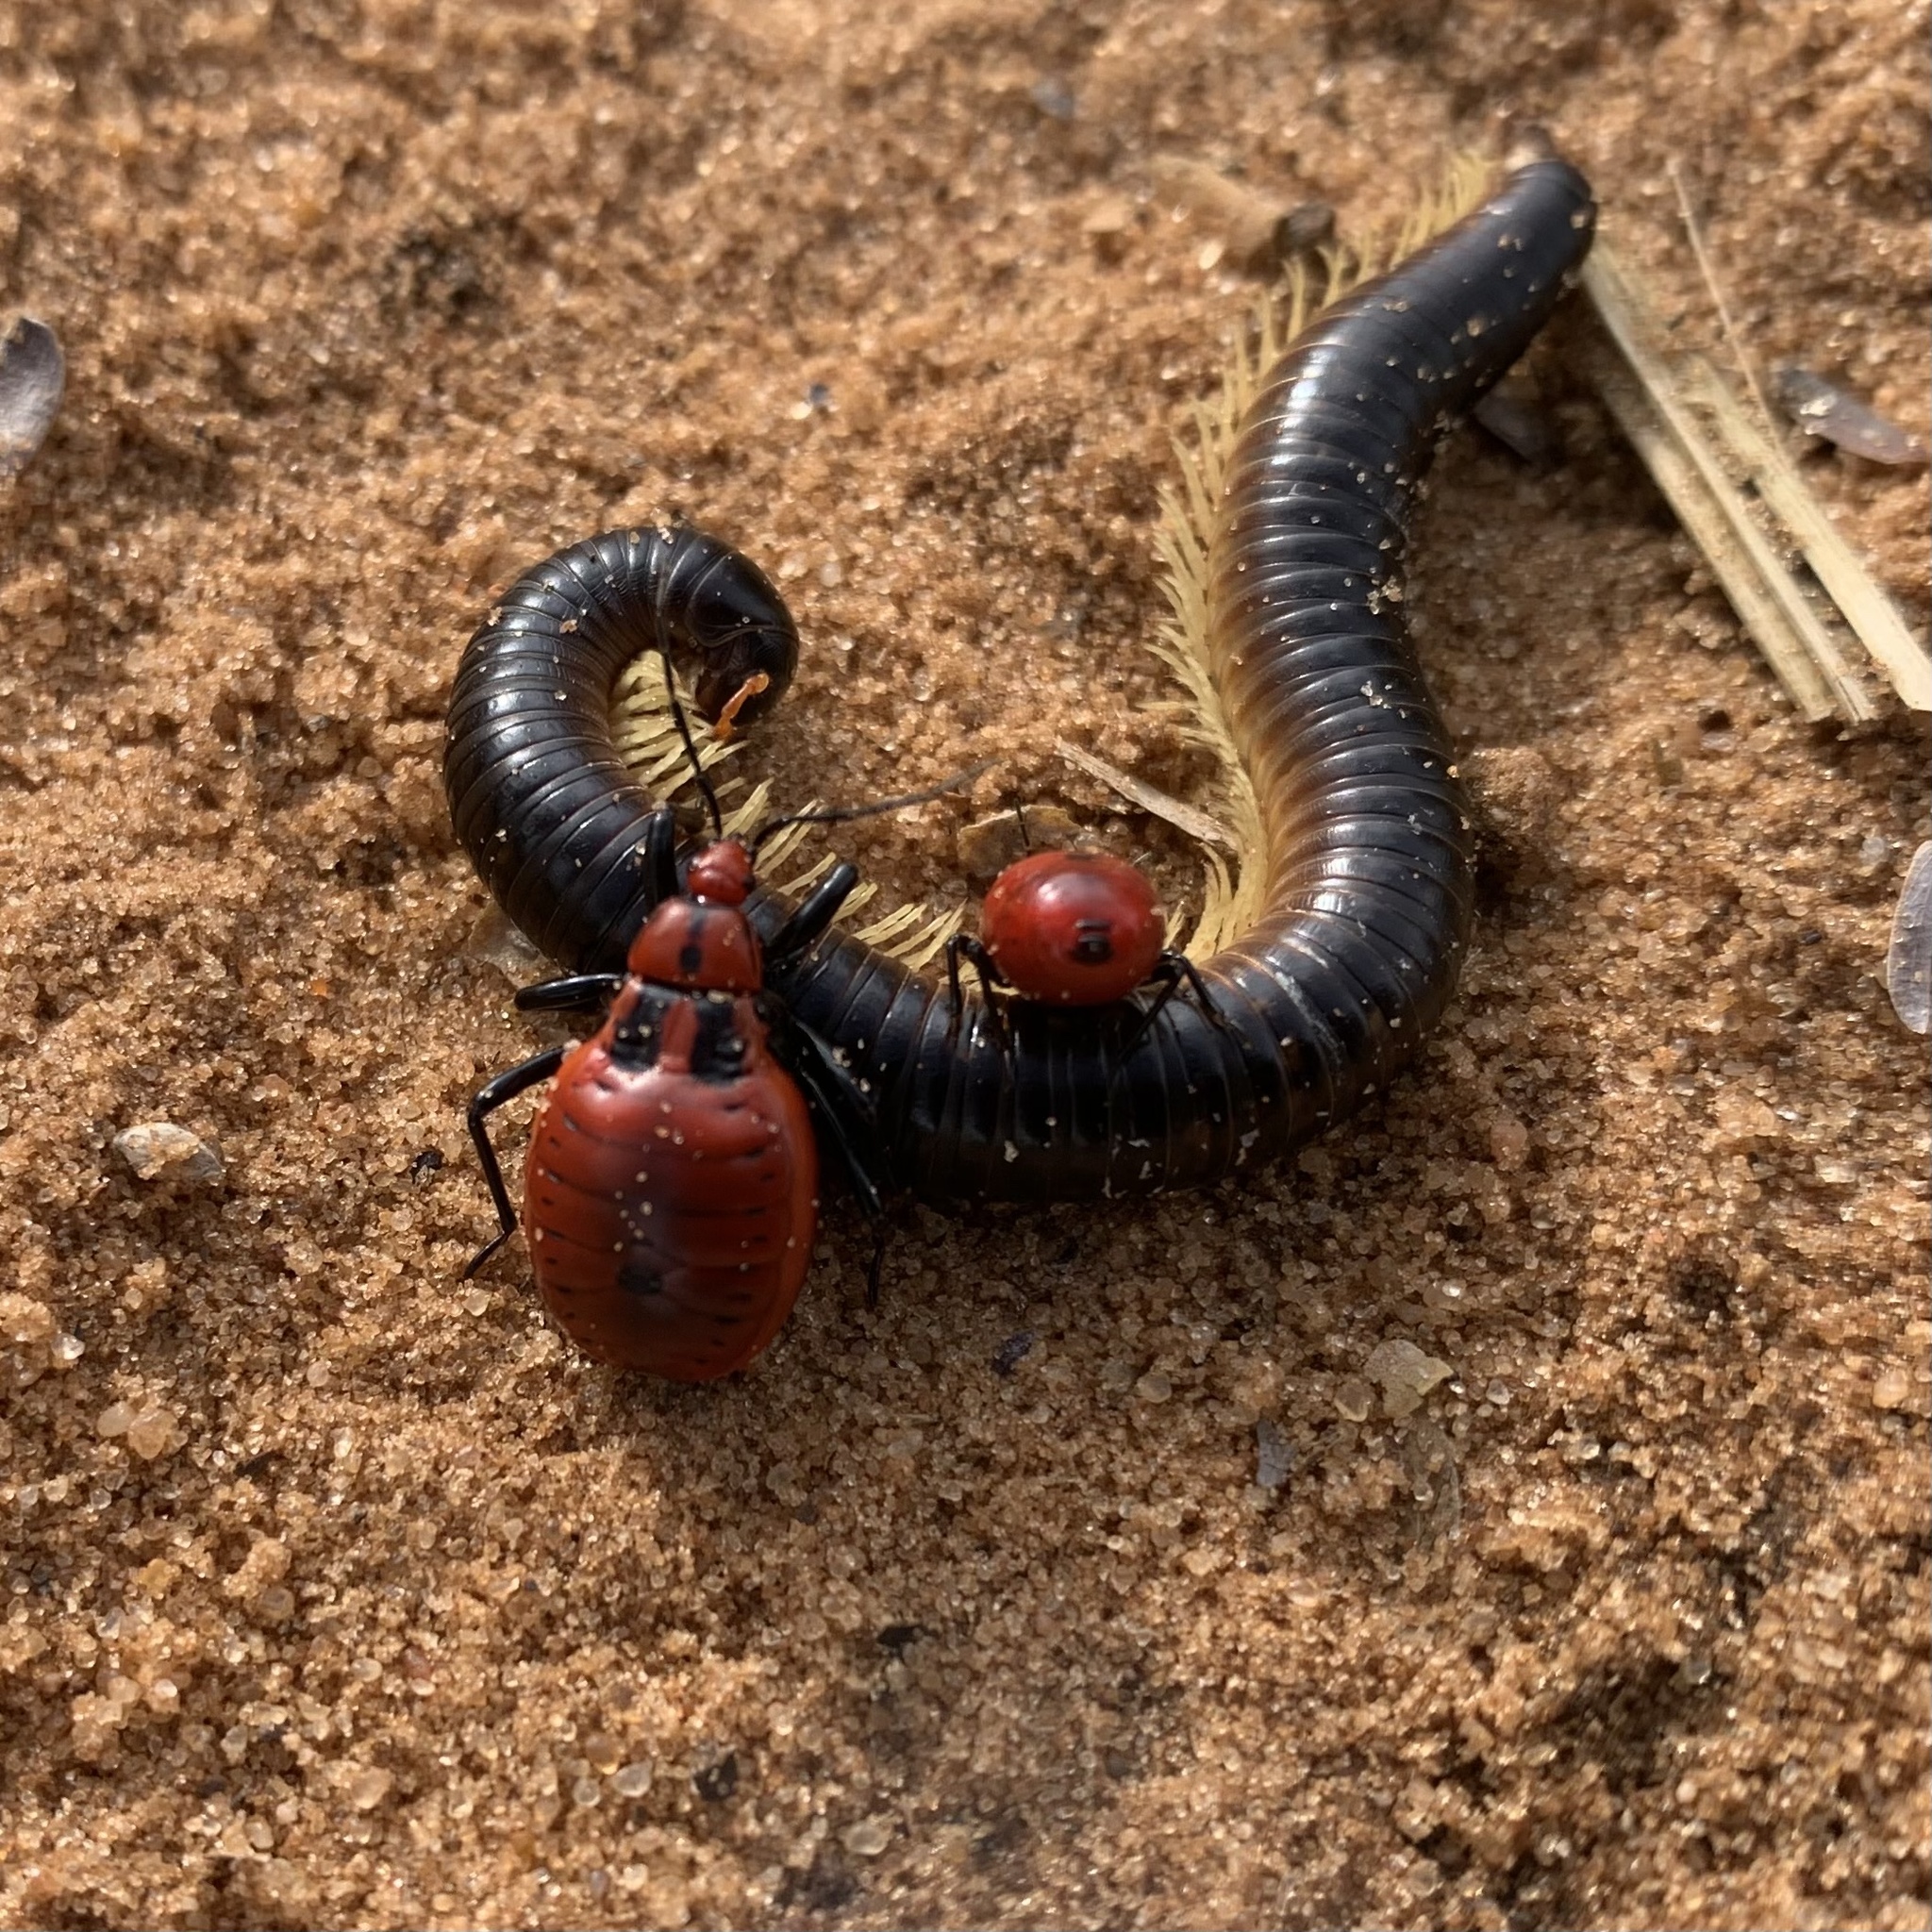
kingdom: Animalia
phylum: Arthropoda
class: Insecta
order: Hemiptera
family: Reduviidae
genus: Ectrichodia
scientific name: Ectrichodia crux
